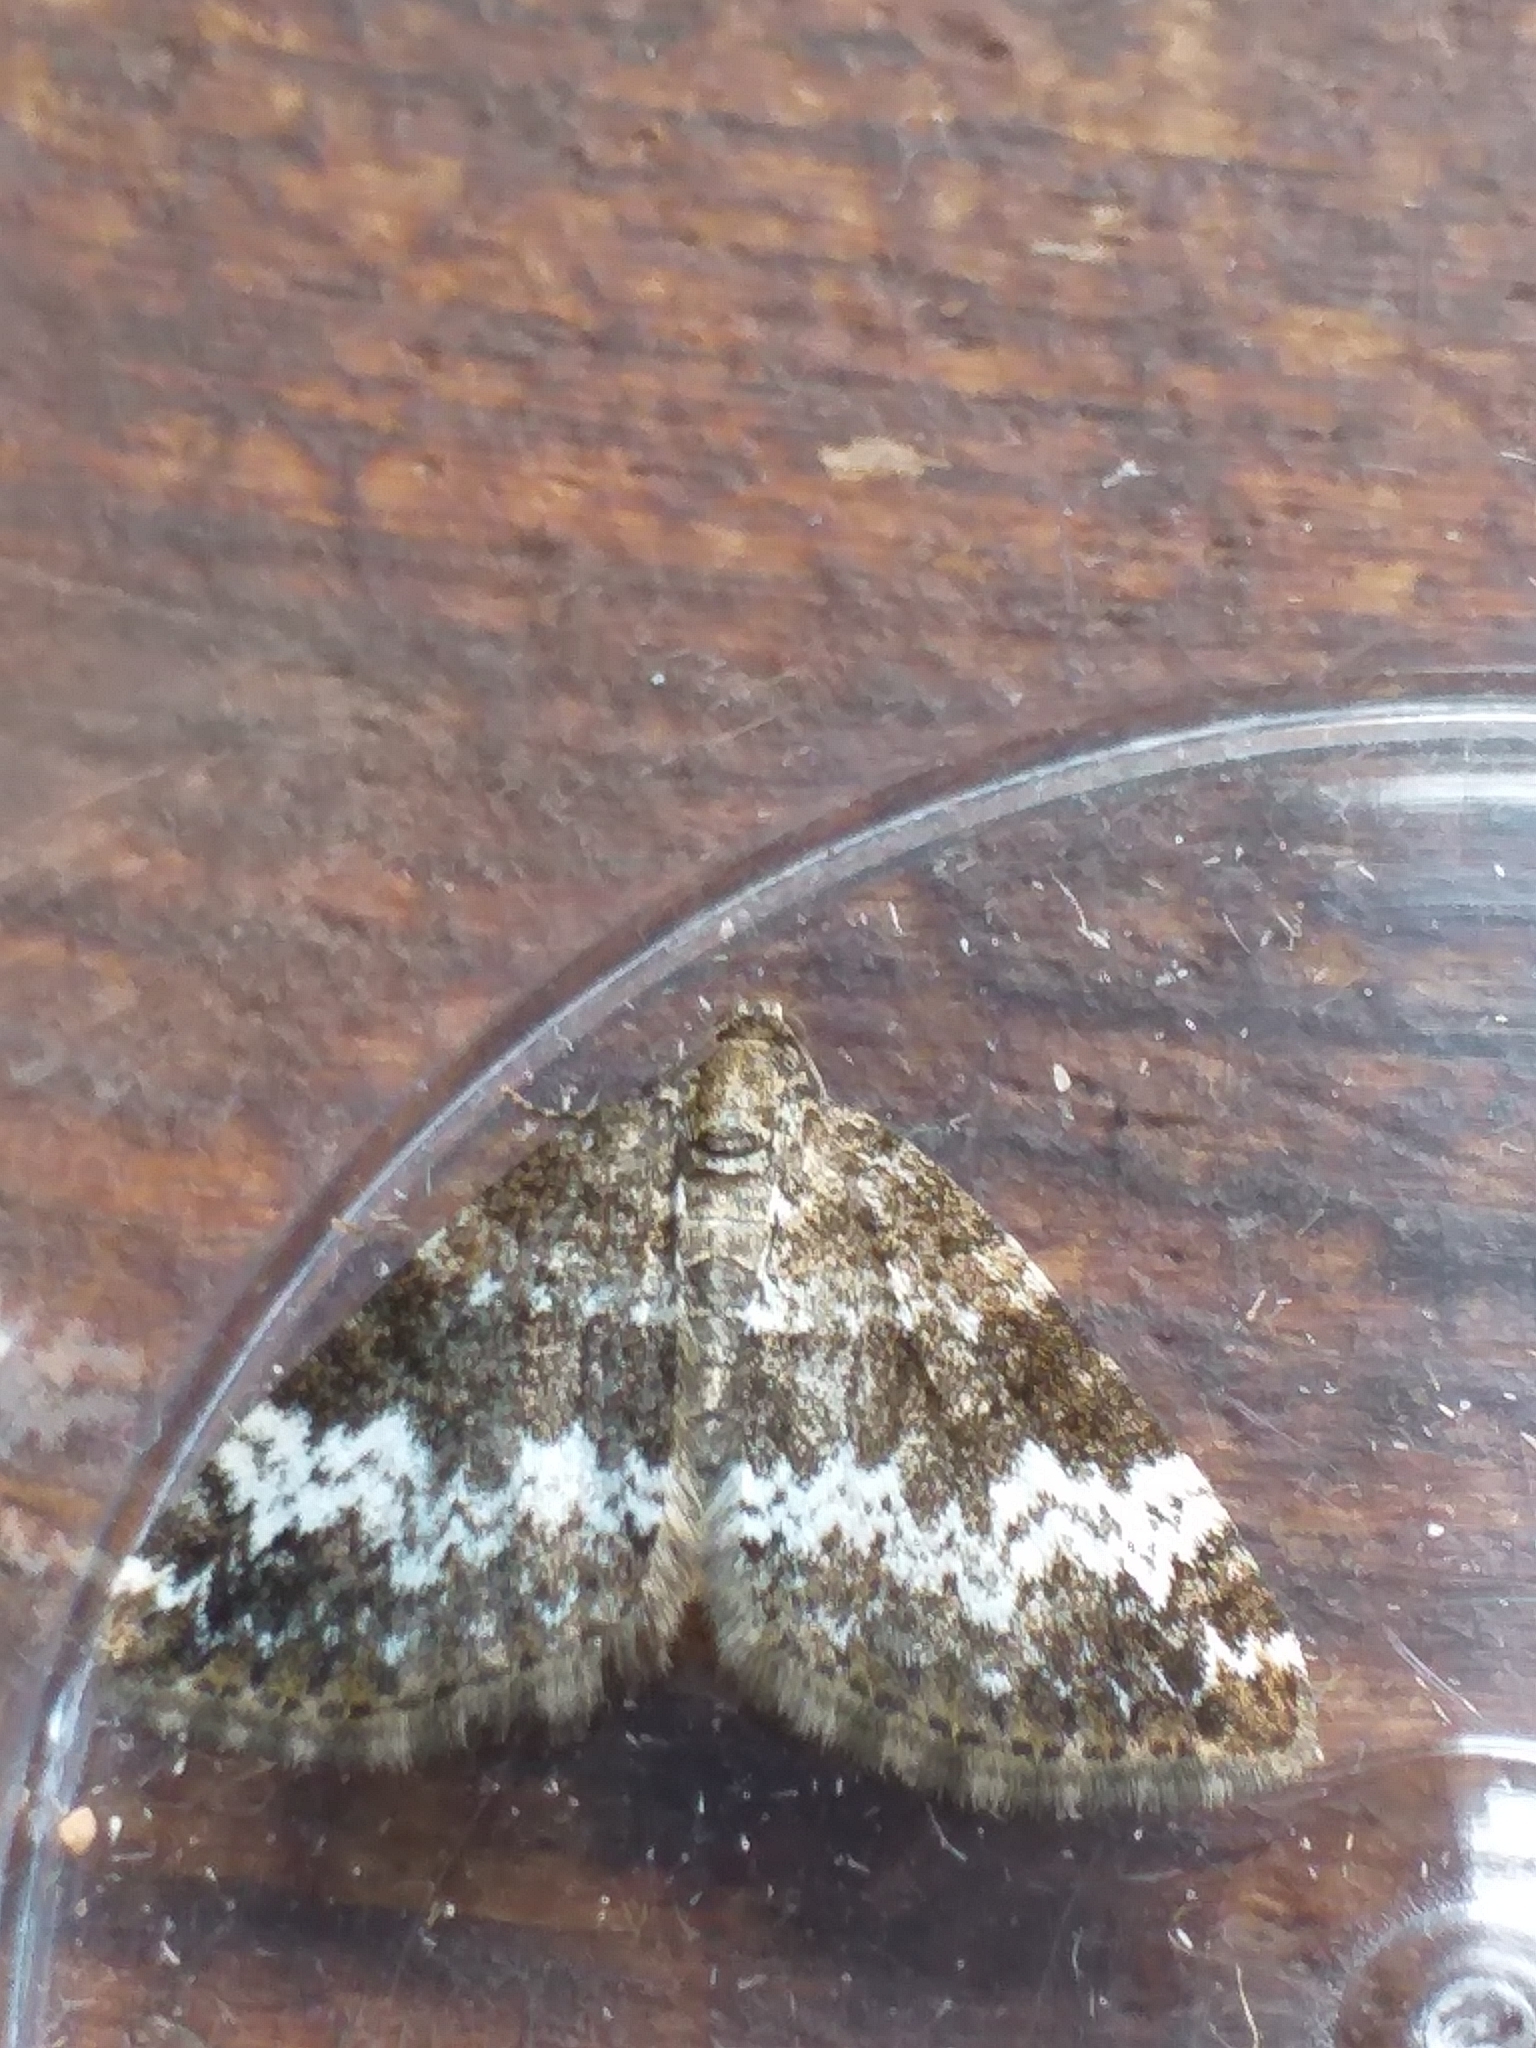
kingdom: Animalia
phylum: Arthropoda
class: Insecta
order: Lepidoptera
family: Geometridae
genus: Perizoma
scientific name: Perizoma alchemillata
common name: Small rivulet
